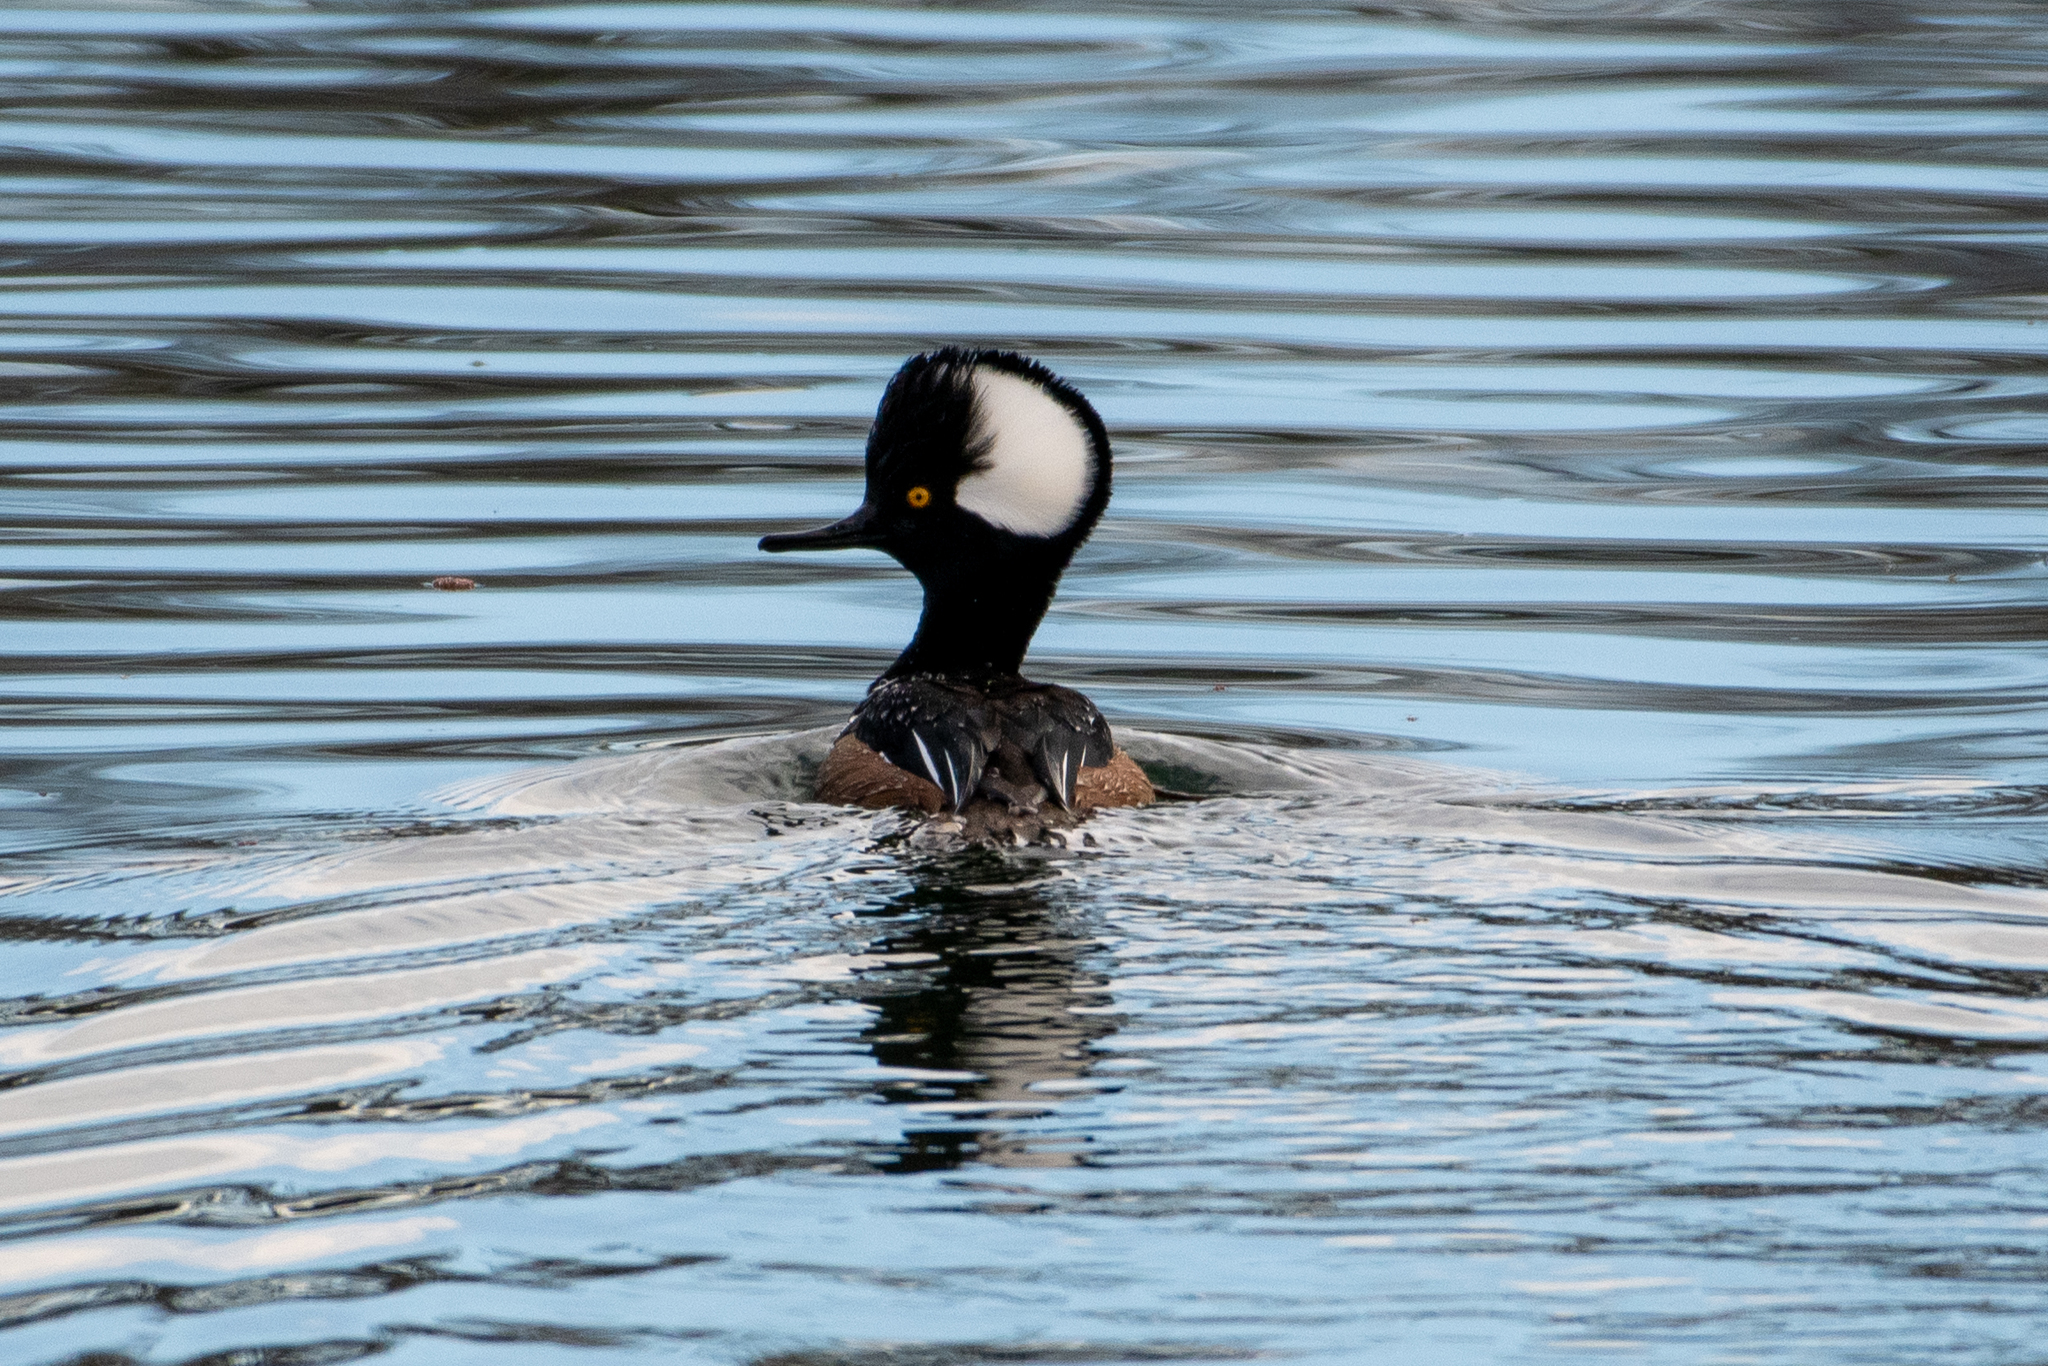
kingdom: Animalia
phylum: Chordata
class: Aves
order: Anseriformes
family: Anatidae
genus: Lophodytes
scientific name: Lophodytes cucullatus
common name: Hooded merganser
